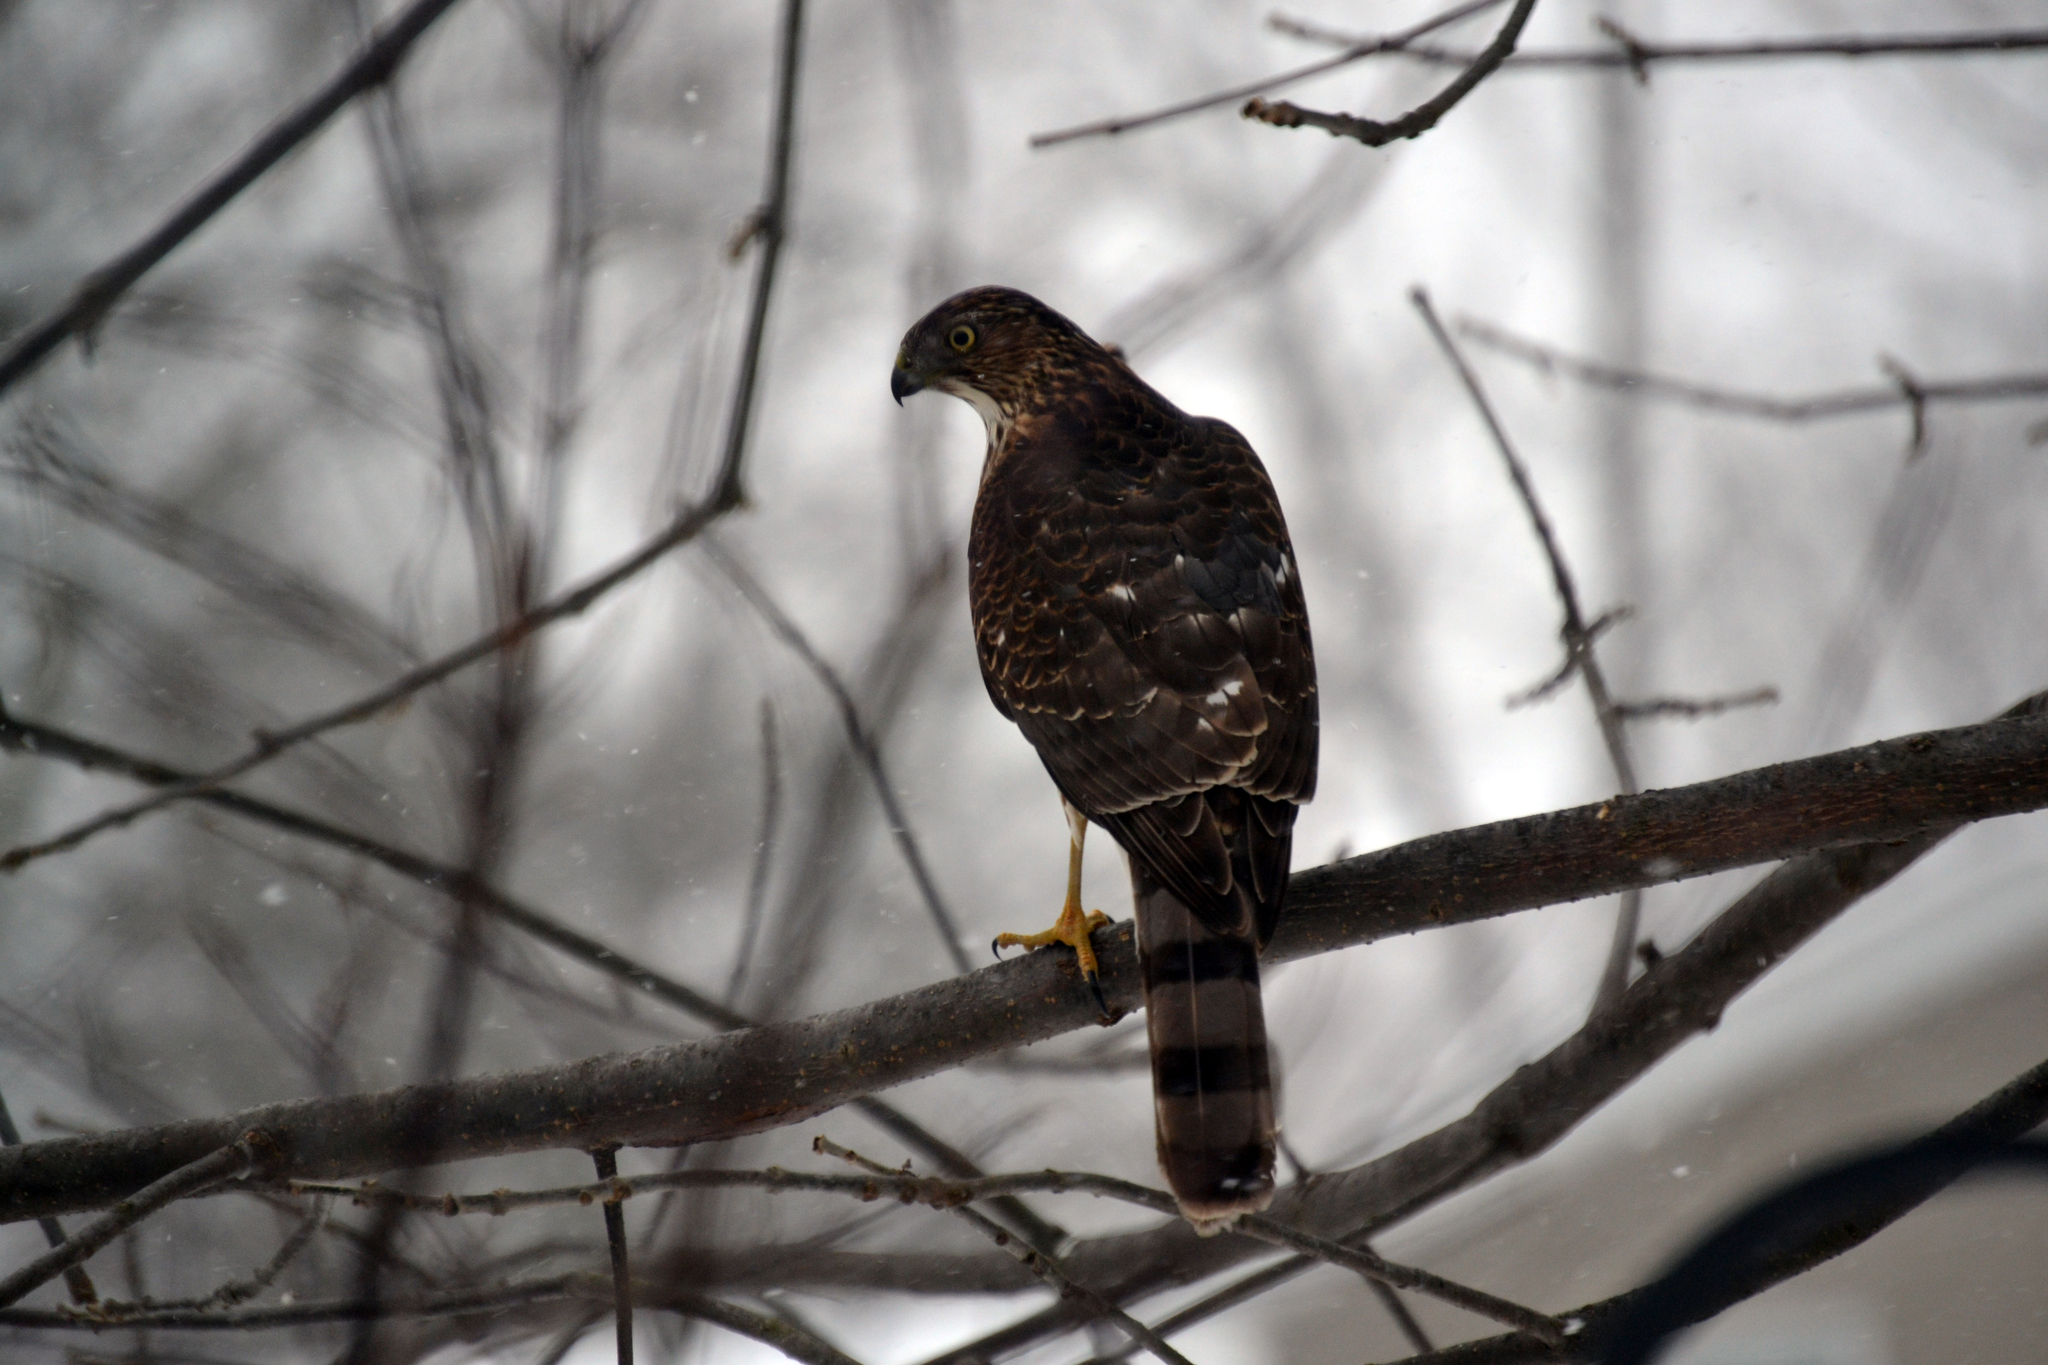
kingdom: Animalia
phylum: Chordata
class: Aves
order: Accipitriformes
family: Accipitridae
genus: Accipiter
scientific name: Accipiter cooperii
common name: Cooper's hawk
